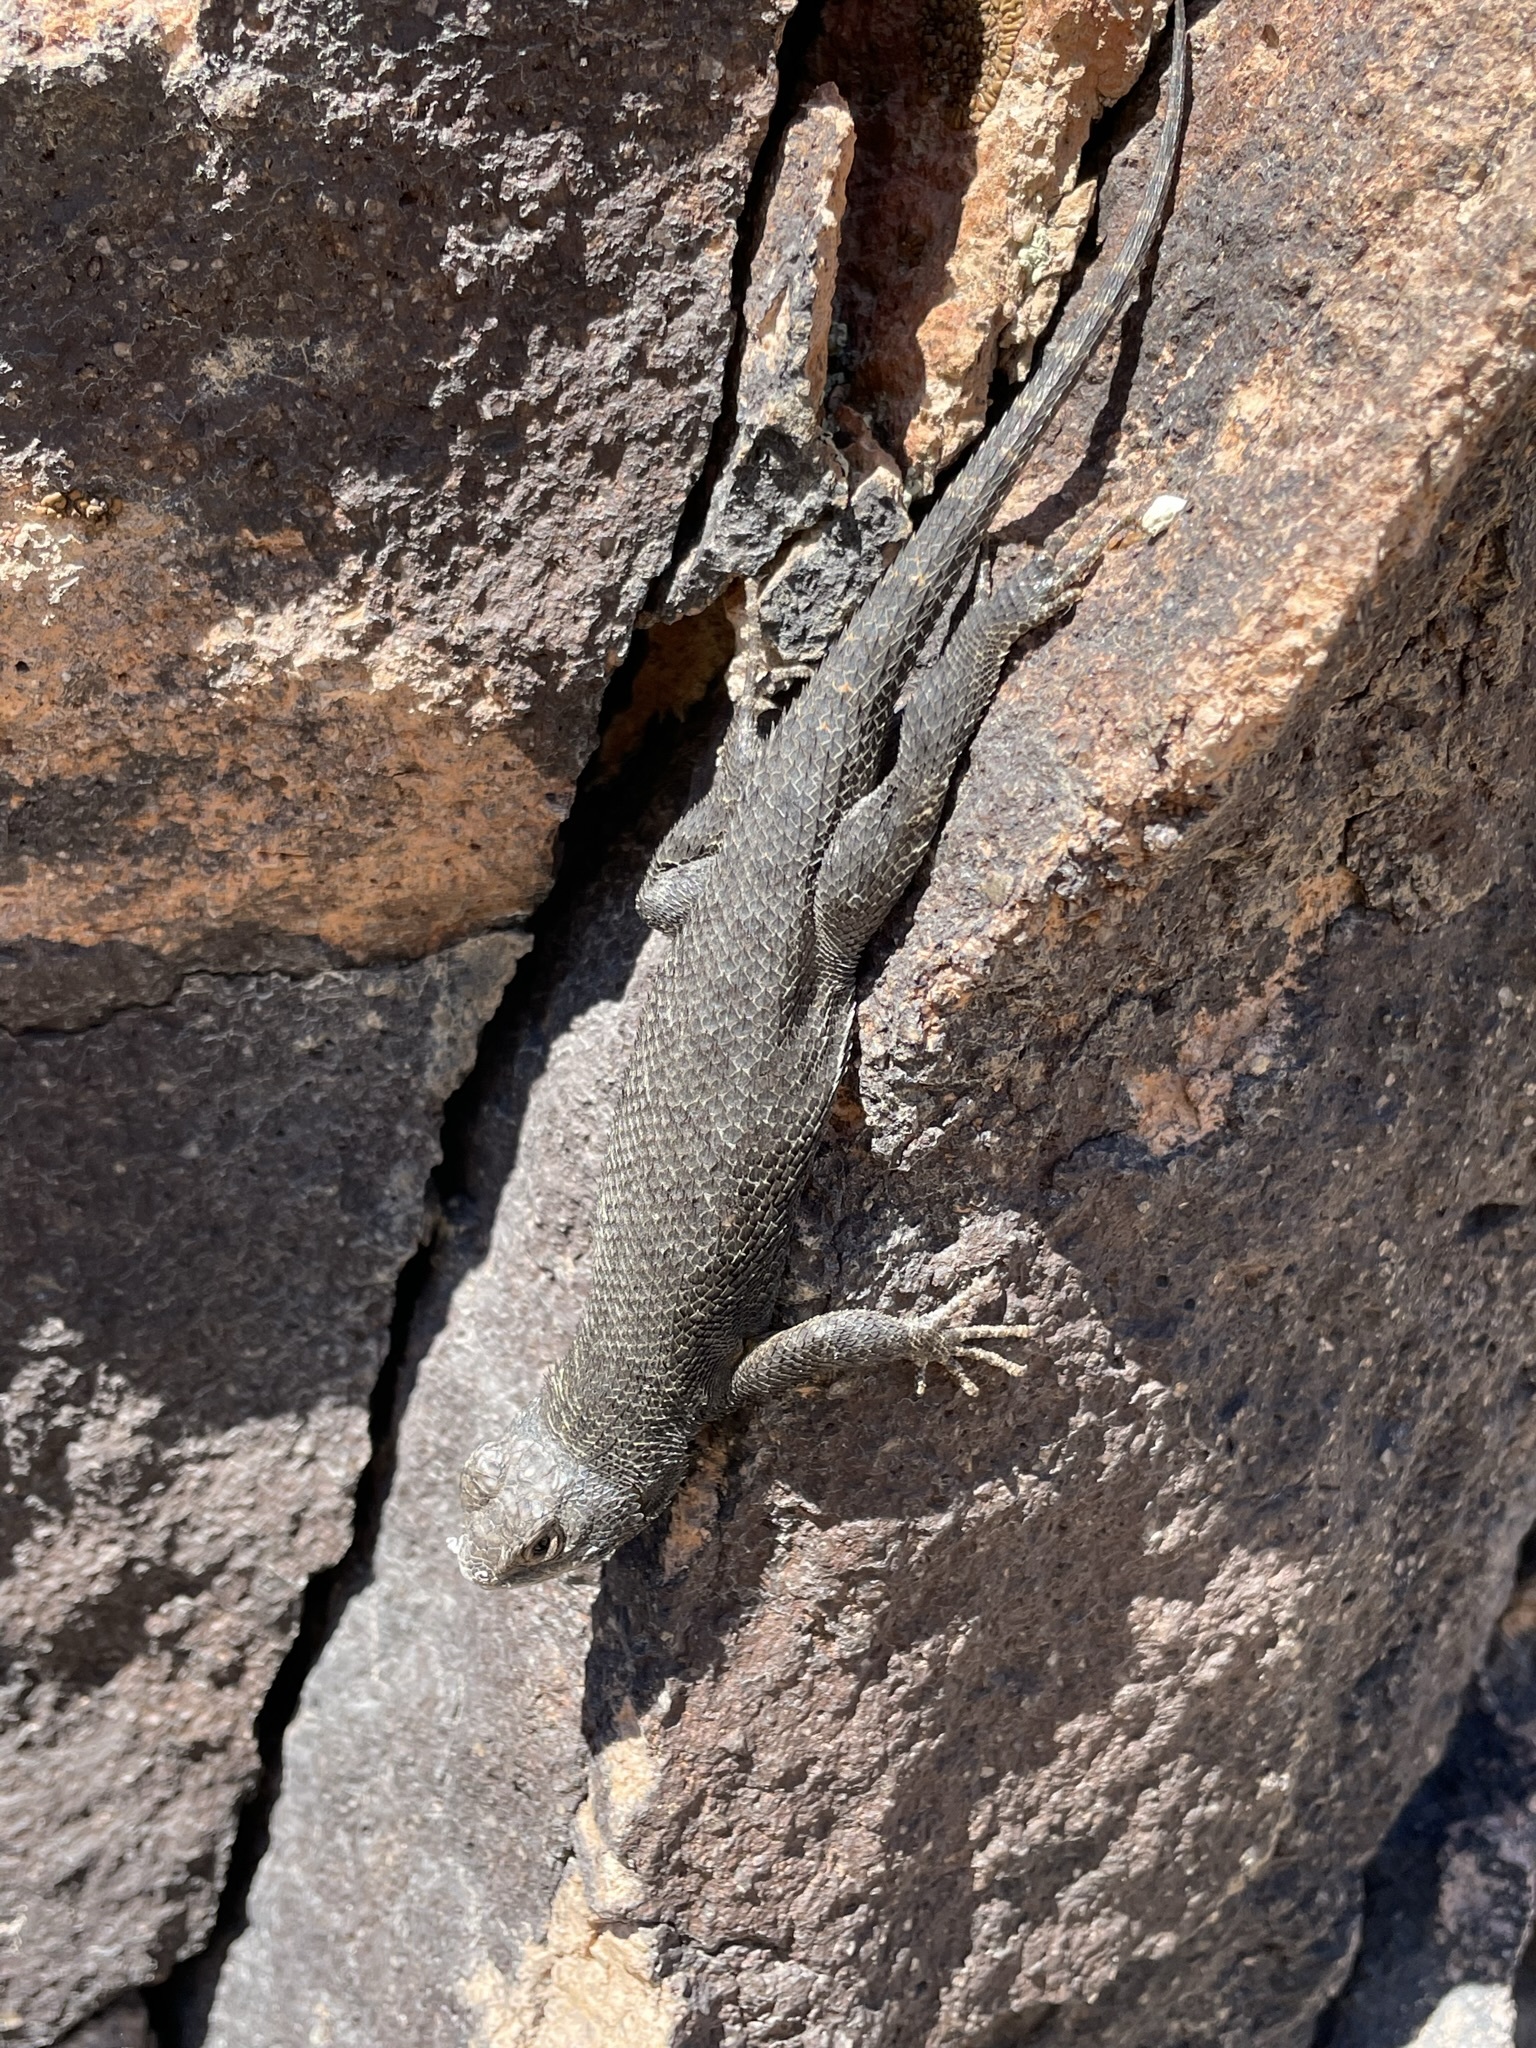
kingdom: Animalia
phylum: Chordata
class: Squamata
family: Phrynosomatidae
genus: Sceloporus
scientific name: Sceloporus occidentalis
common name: Western fence lizard
